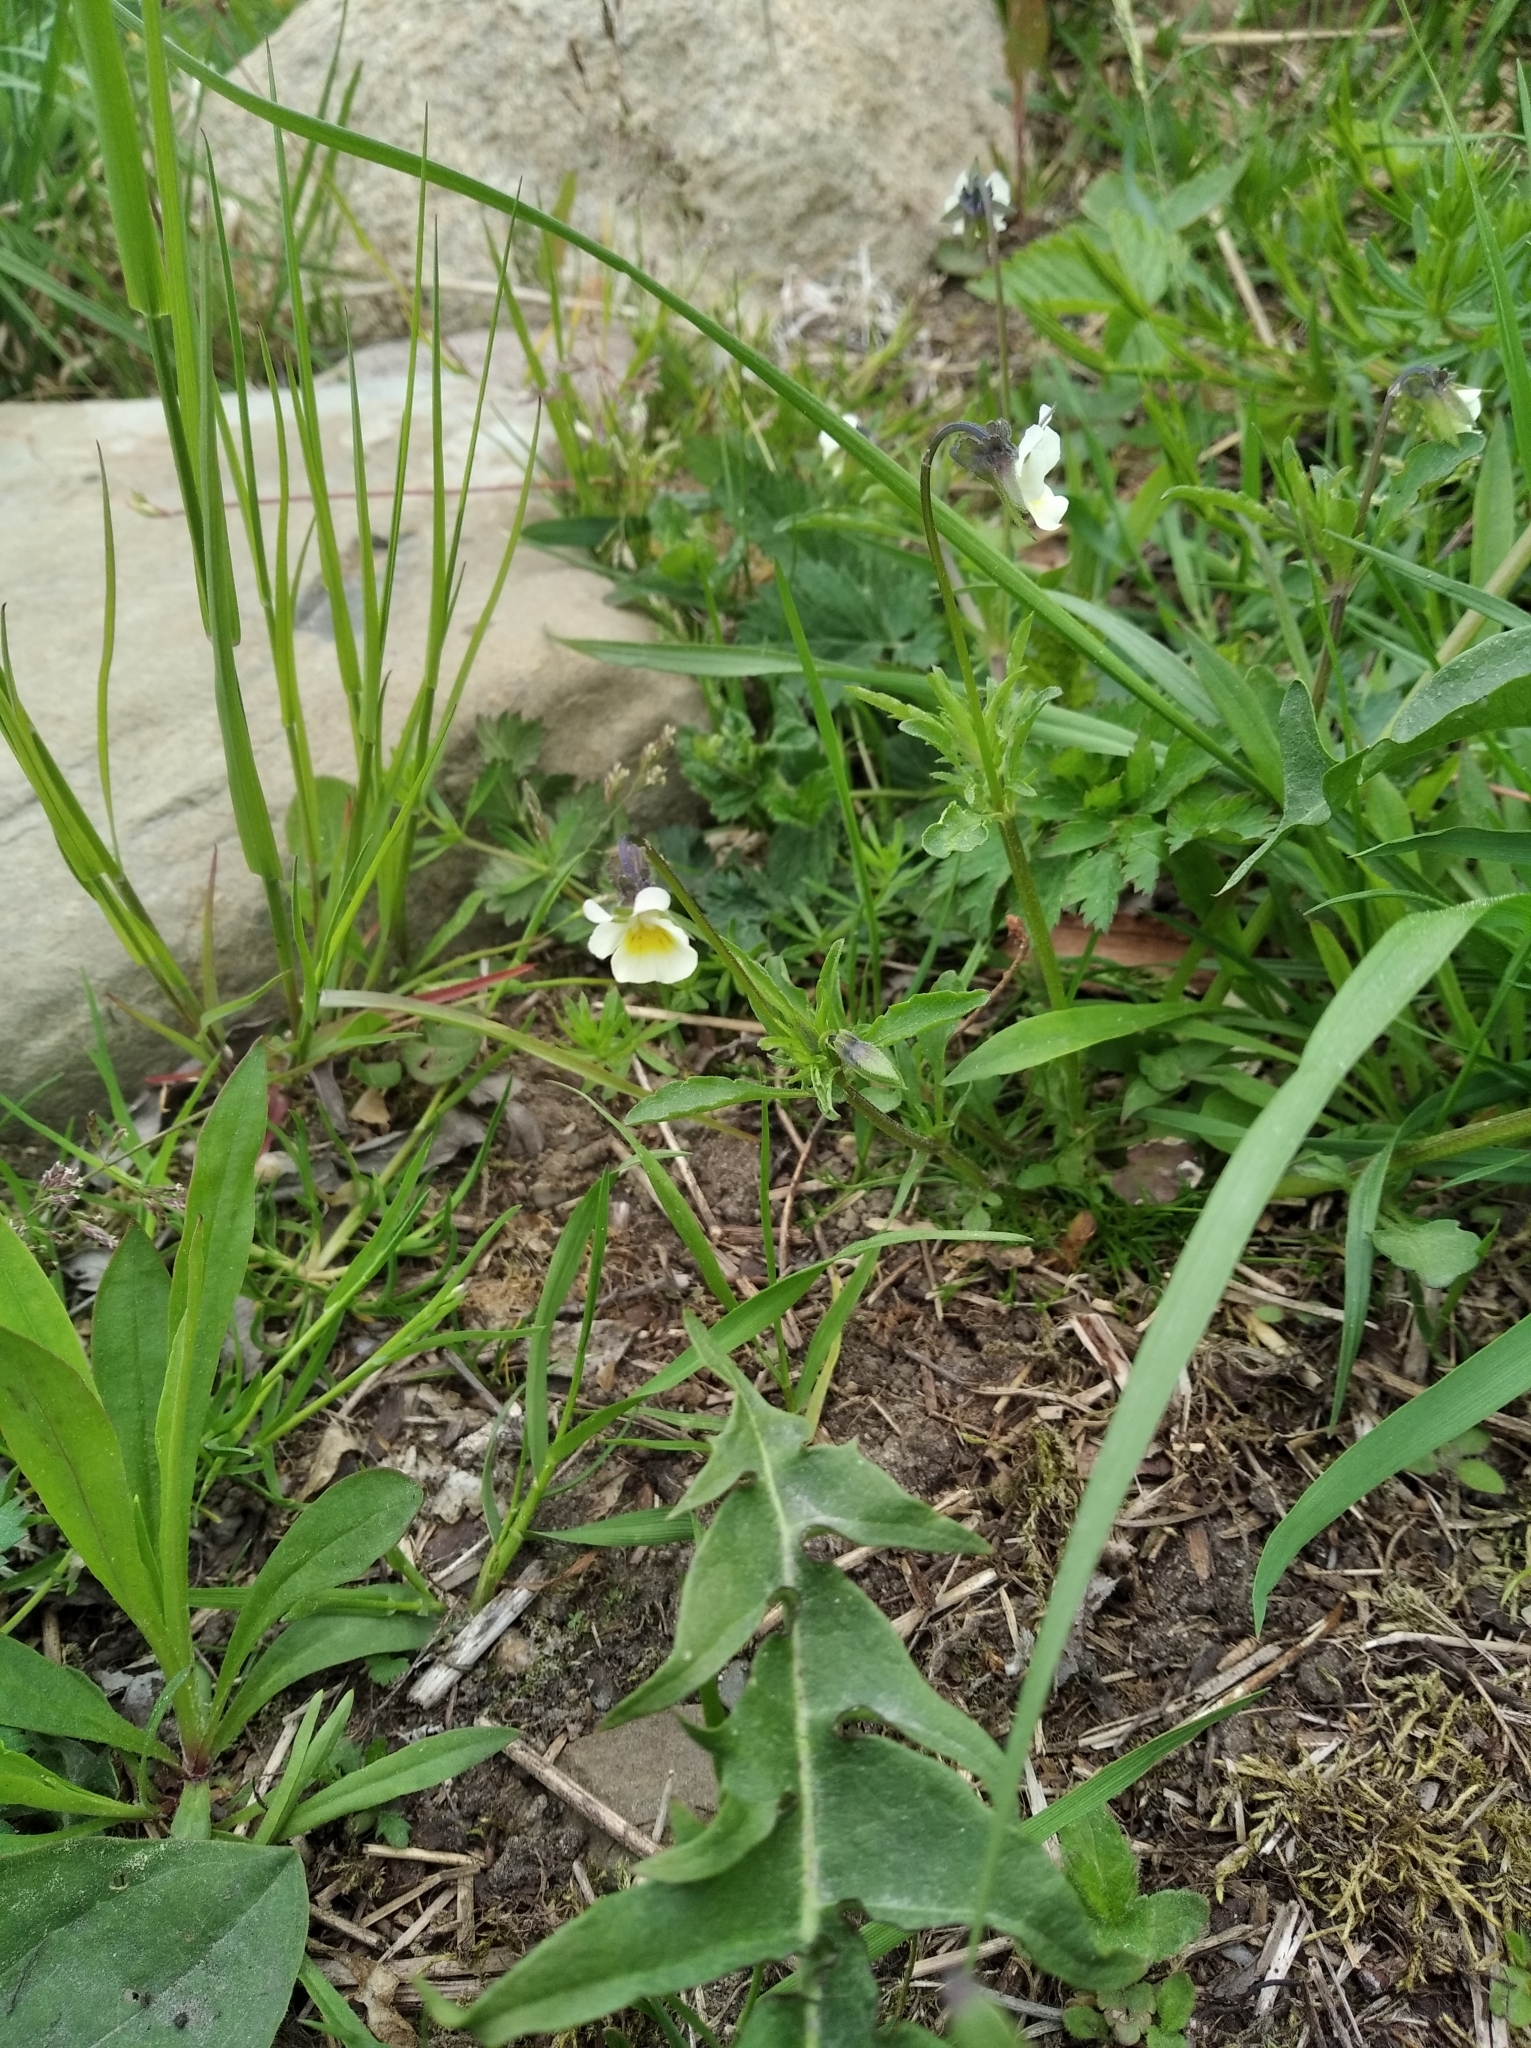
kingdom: Plantae
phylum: Tracheophyta
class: Magnoliopsida
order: Malpighiales
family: Violaceae
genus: Viola
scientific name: Viola arvensis
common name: Field pansy
